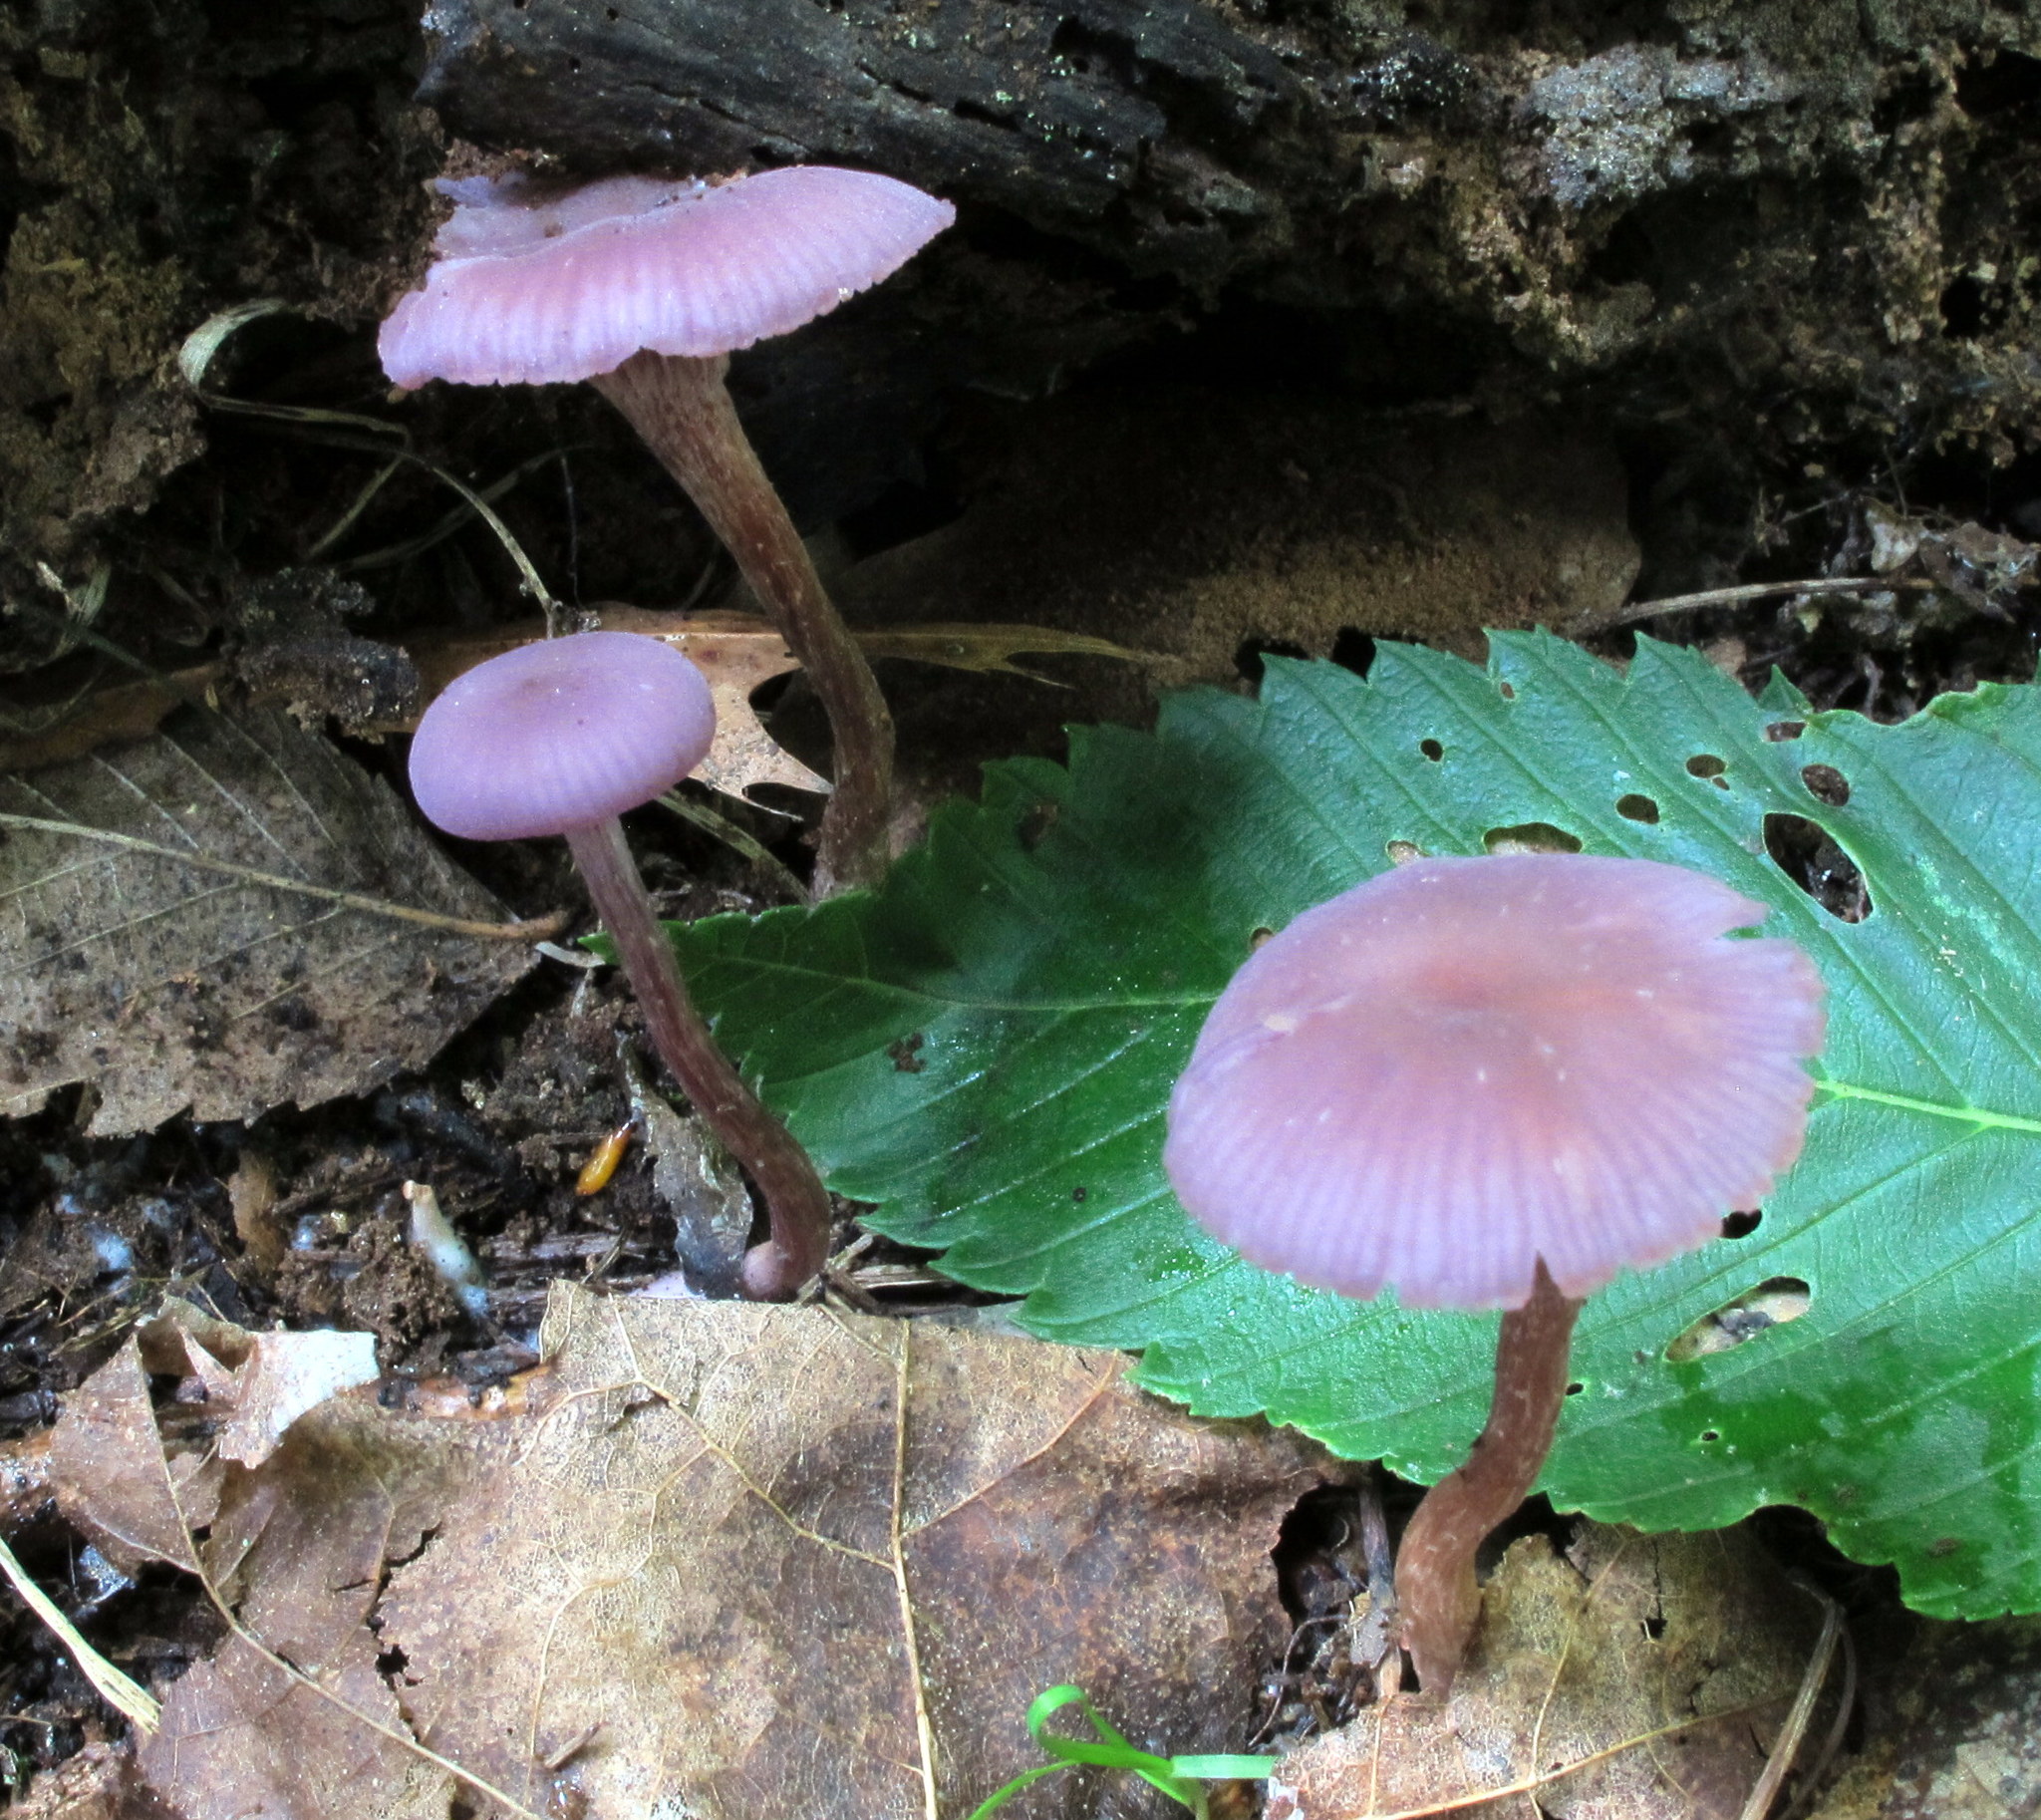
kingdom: Fungi
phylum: Basidiomycota
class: Agaricomycetes
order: Agaricales
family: Hydnangiaceae
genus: Laccaria
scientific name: Laccaria amethystina
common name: Amethyst deceiver
